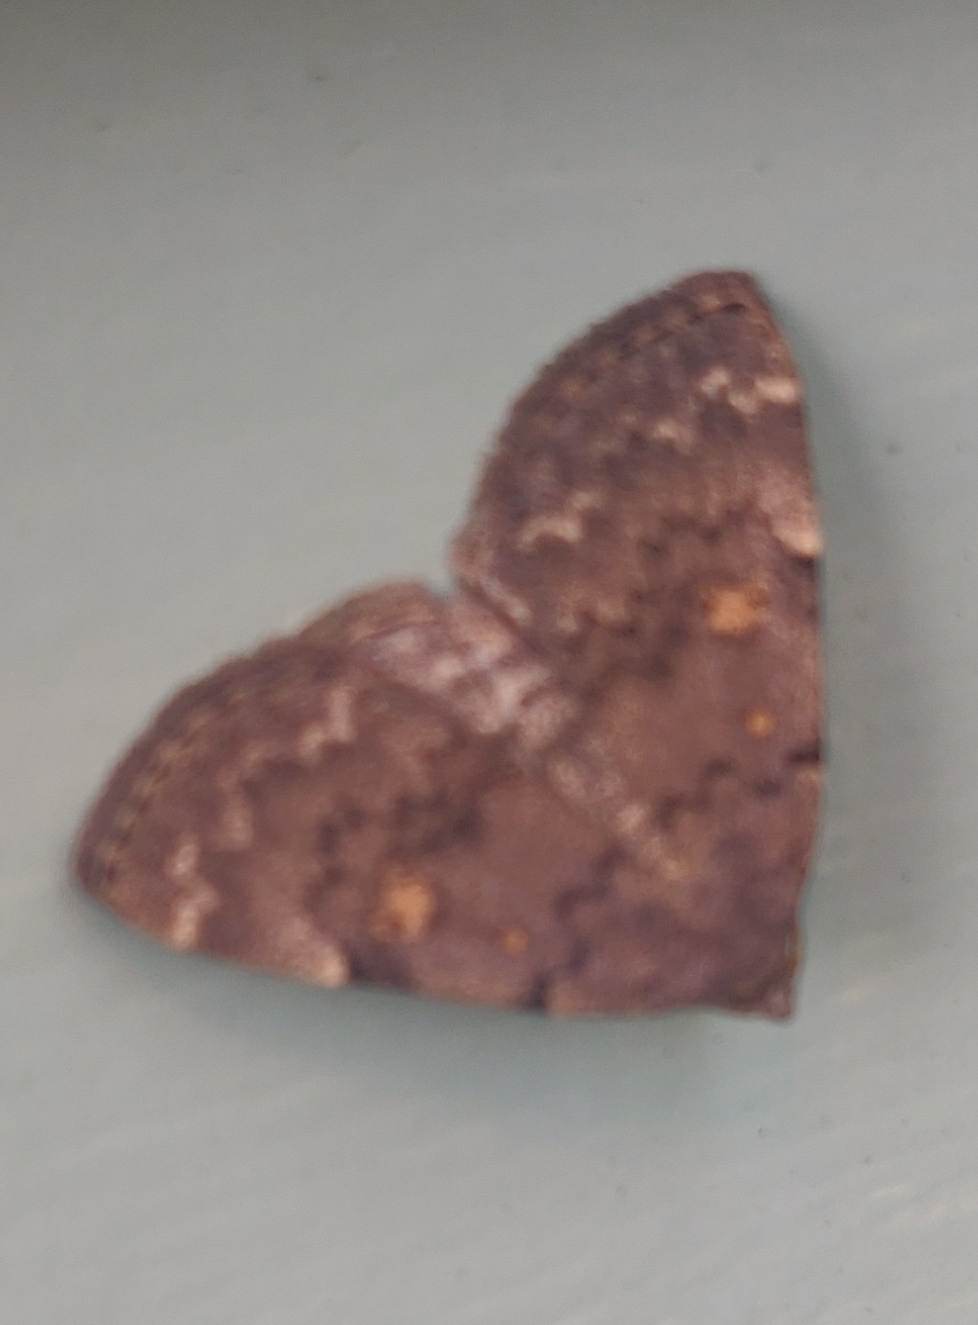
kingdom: Animalia
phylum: Arthropoda
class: Insecta
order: Lepidoptera
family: Erebidae
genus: Idia
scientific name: Idia aemula
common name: Common idia moth
